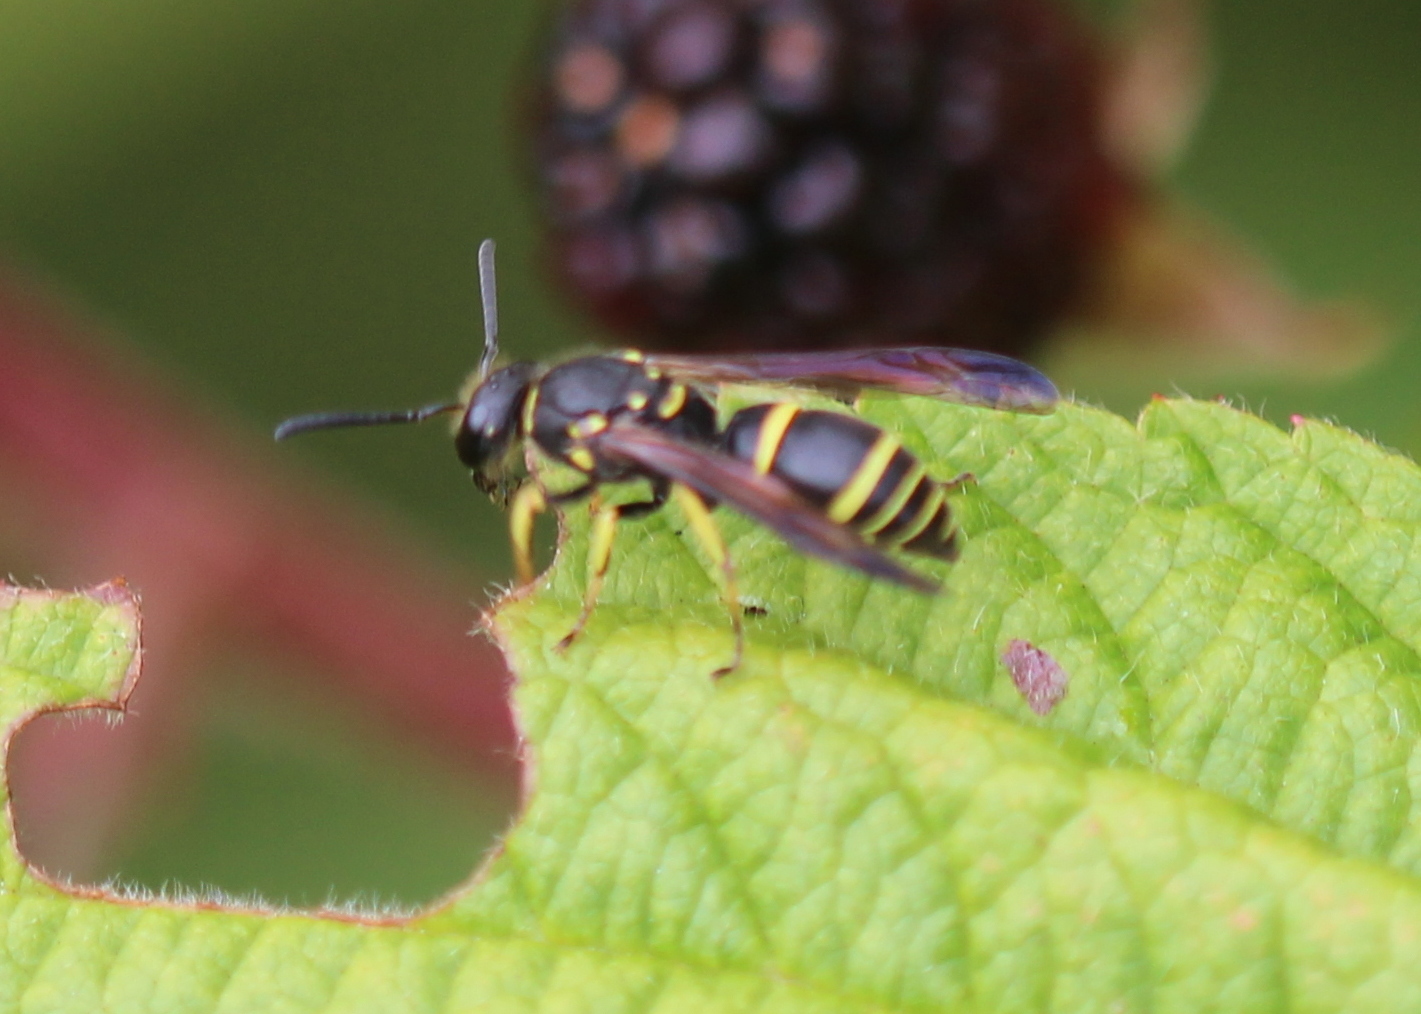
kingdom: Animalia
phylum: Arthropoda
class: Insecta
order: Hymenoptera
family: Vespidae
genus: Ancistrocerus
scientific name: Ancistrocerus adiabatus
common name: Bramble mason wasp
